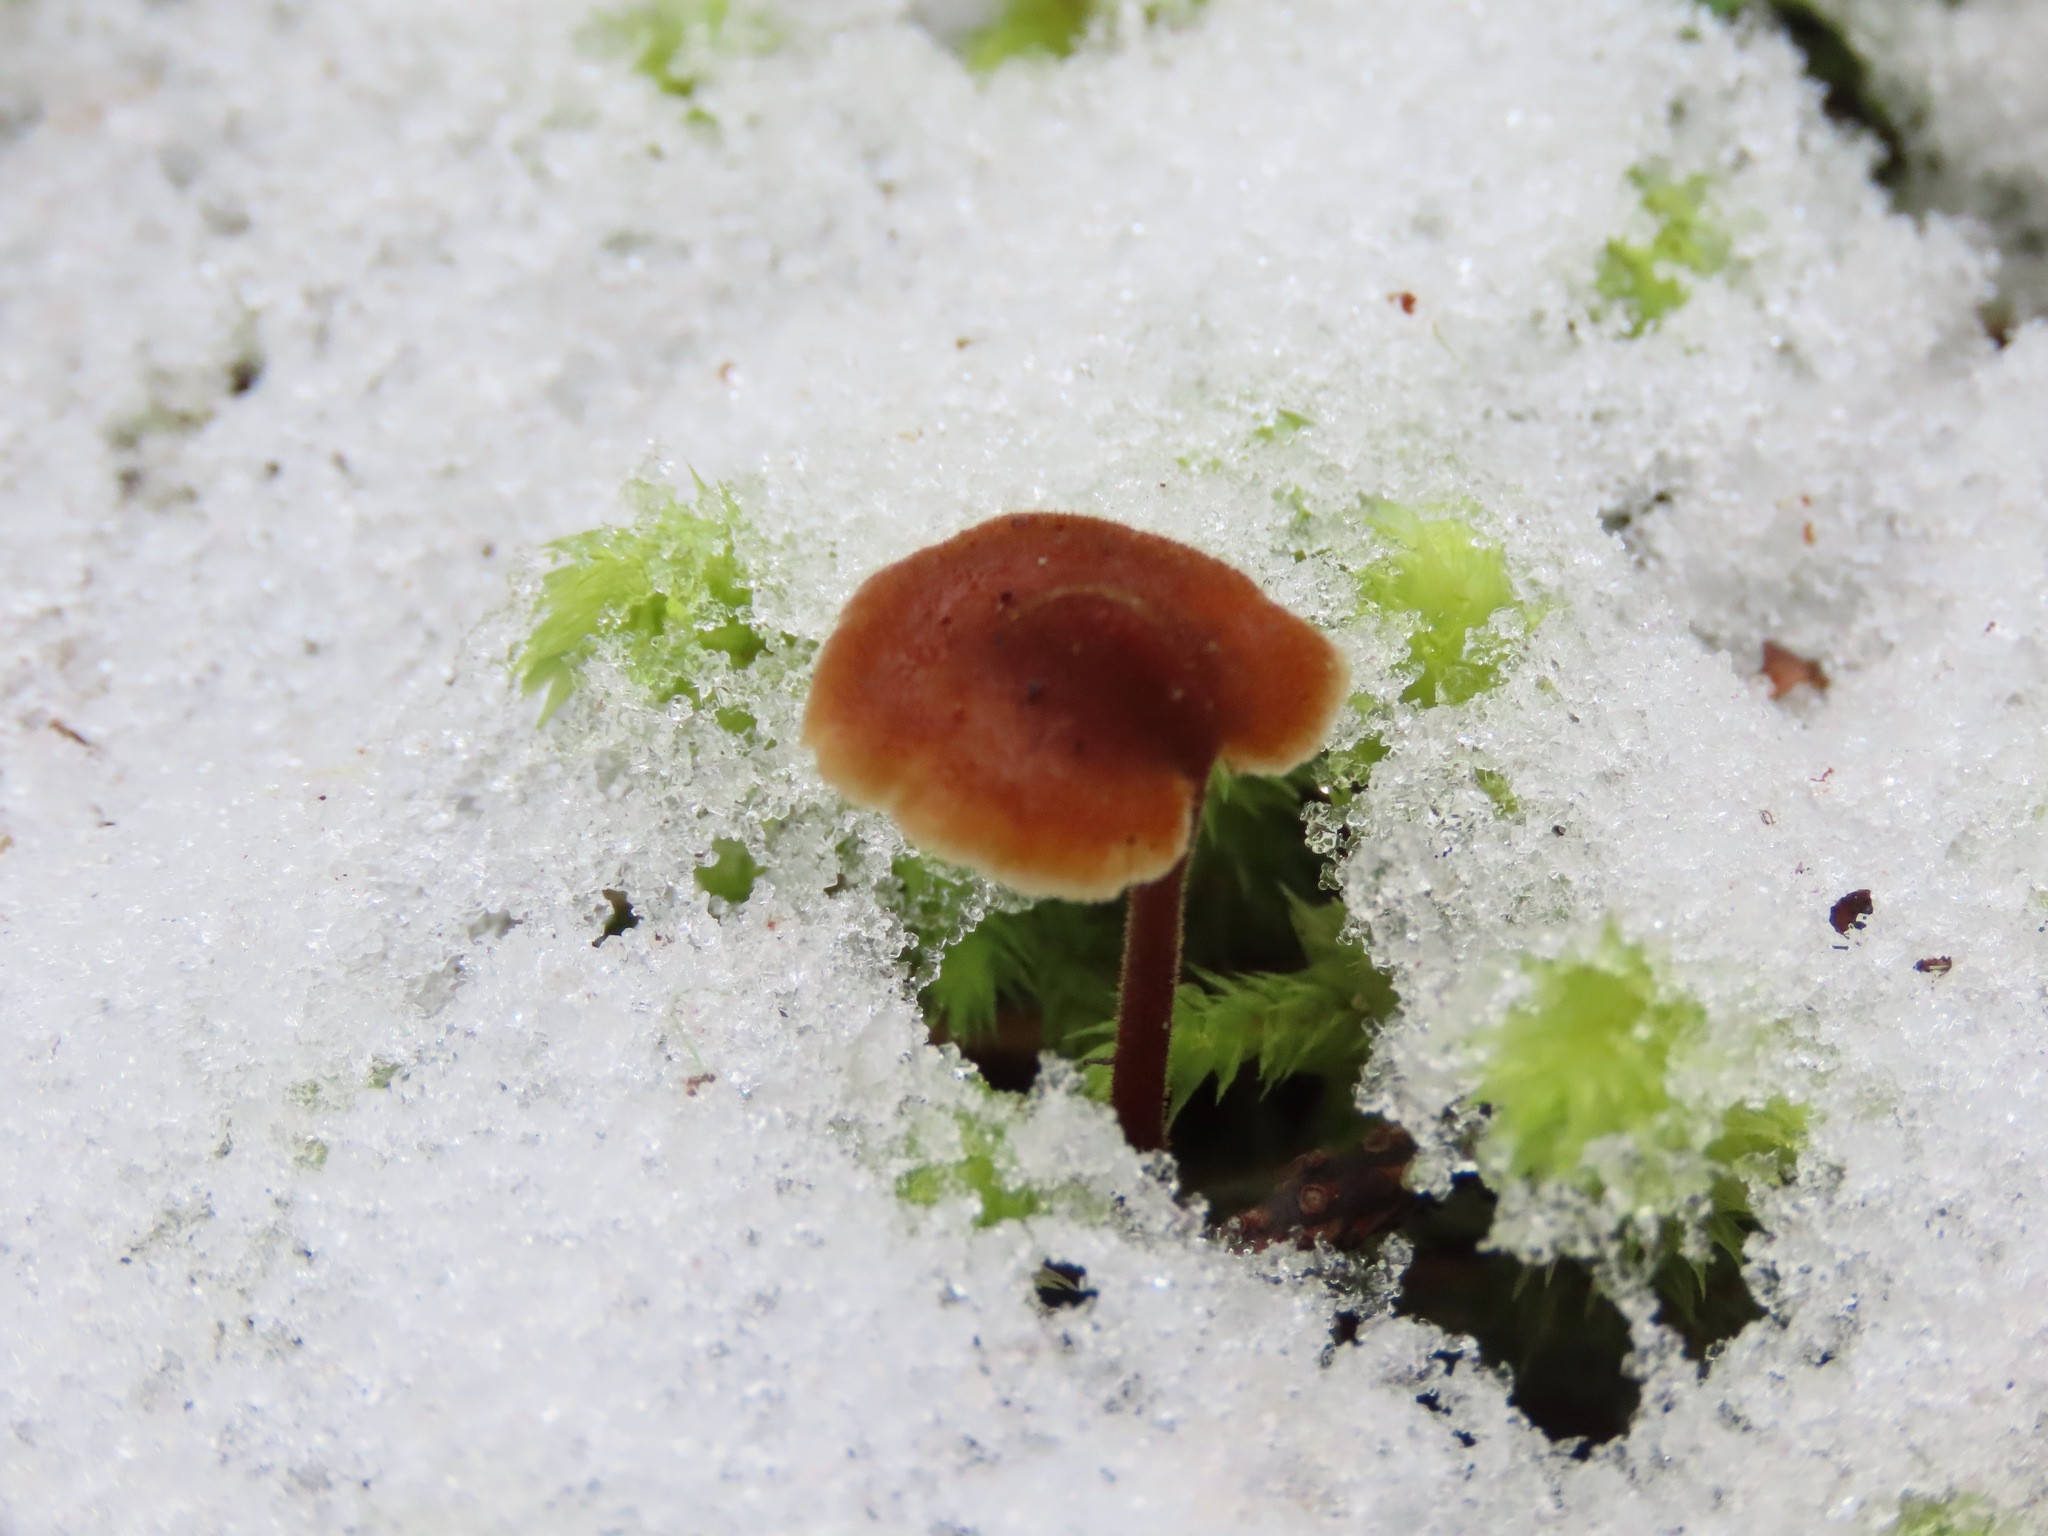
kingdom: Fungi
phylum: Basidiomycota
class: Agaricomycetes
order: Russulales
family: Auriscalpiaceae
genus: Auriscalpium
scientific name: Auriscalpium vulgare
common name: Earpick fungus
